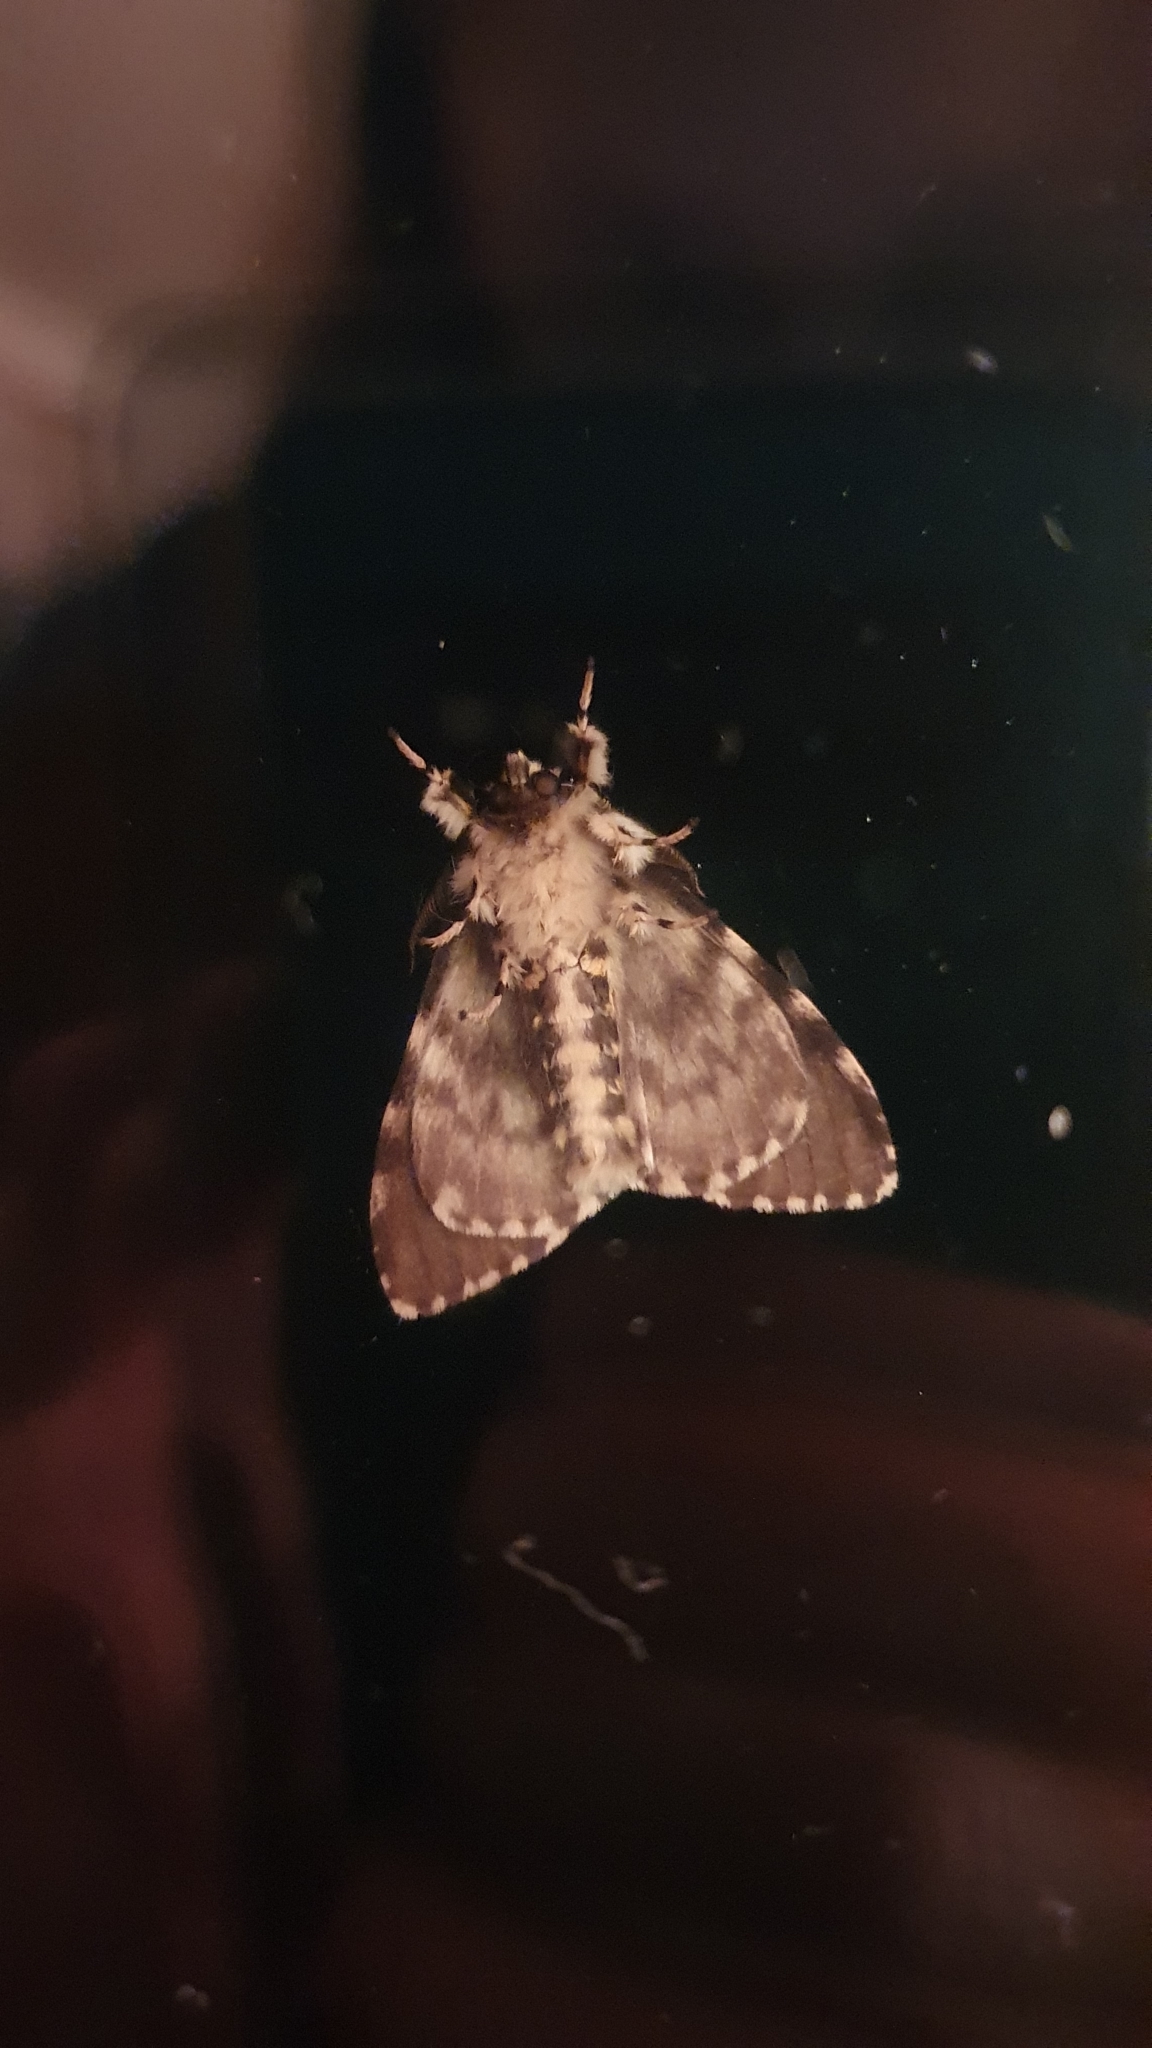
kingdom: Animalia
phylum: Arthropoda
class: Insecta
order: Lepidoptera
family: Erebidae
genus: Lymantria
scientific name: Lymantria monacha
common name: Black arches
